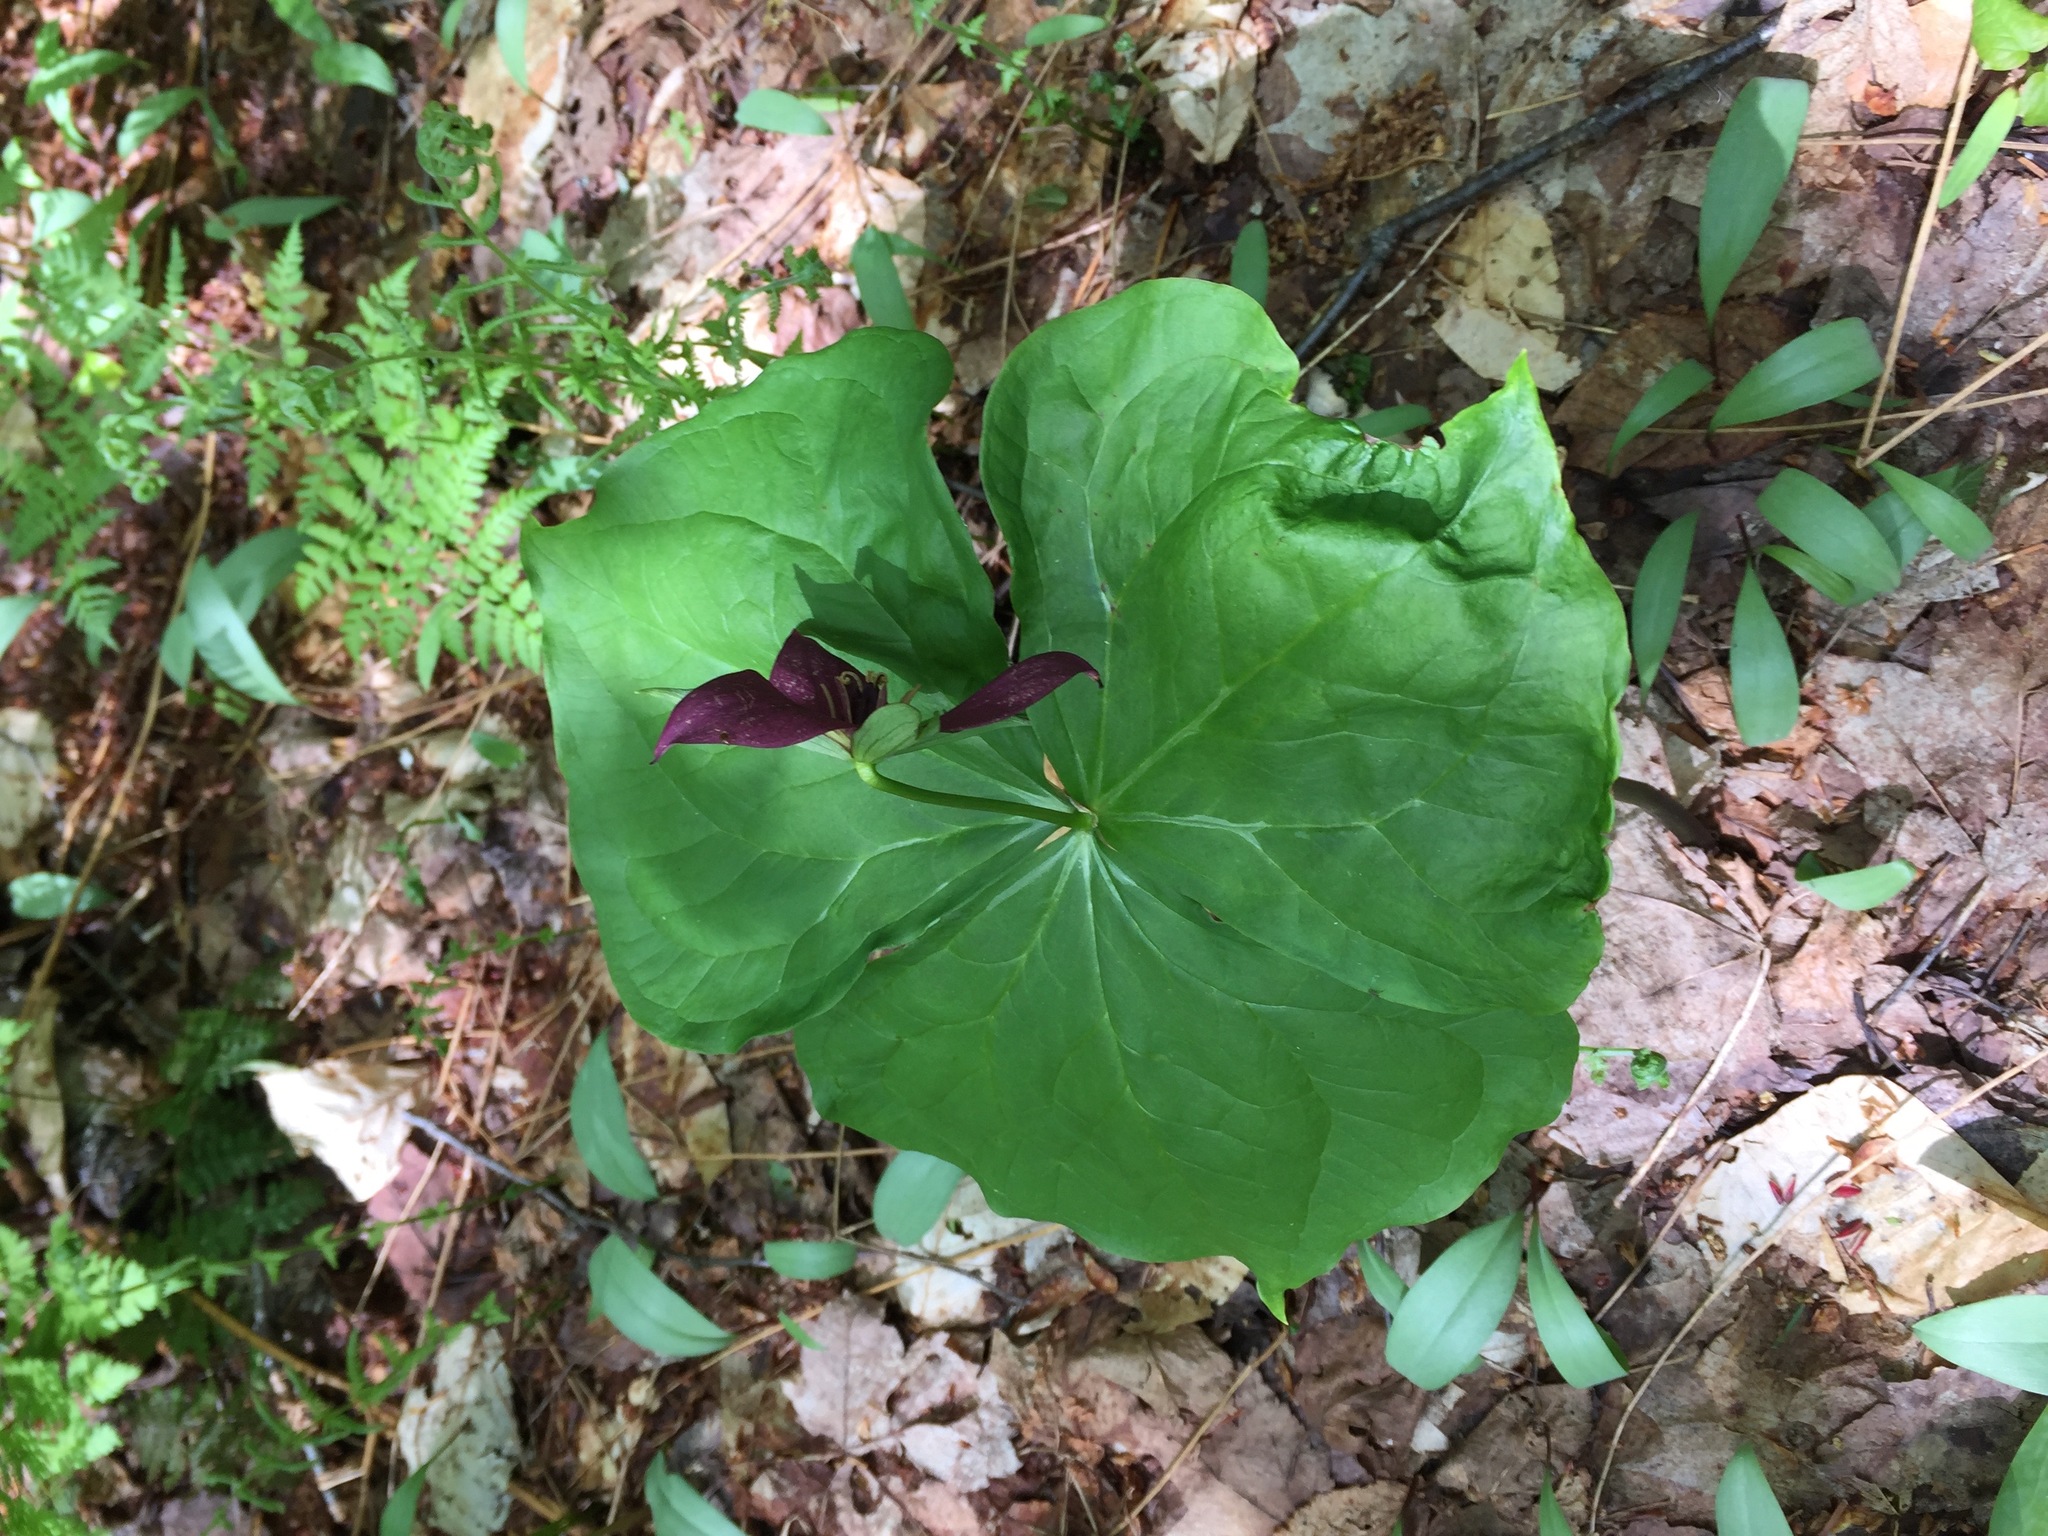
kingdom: Plantae
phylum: Tracheophyta
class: Liliopsida
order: Liliales
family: Melanthiaceae
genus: Trillium
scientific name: Trillium erectum
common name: Purple trillium
